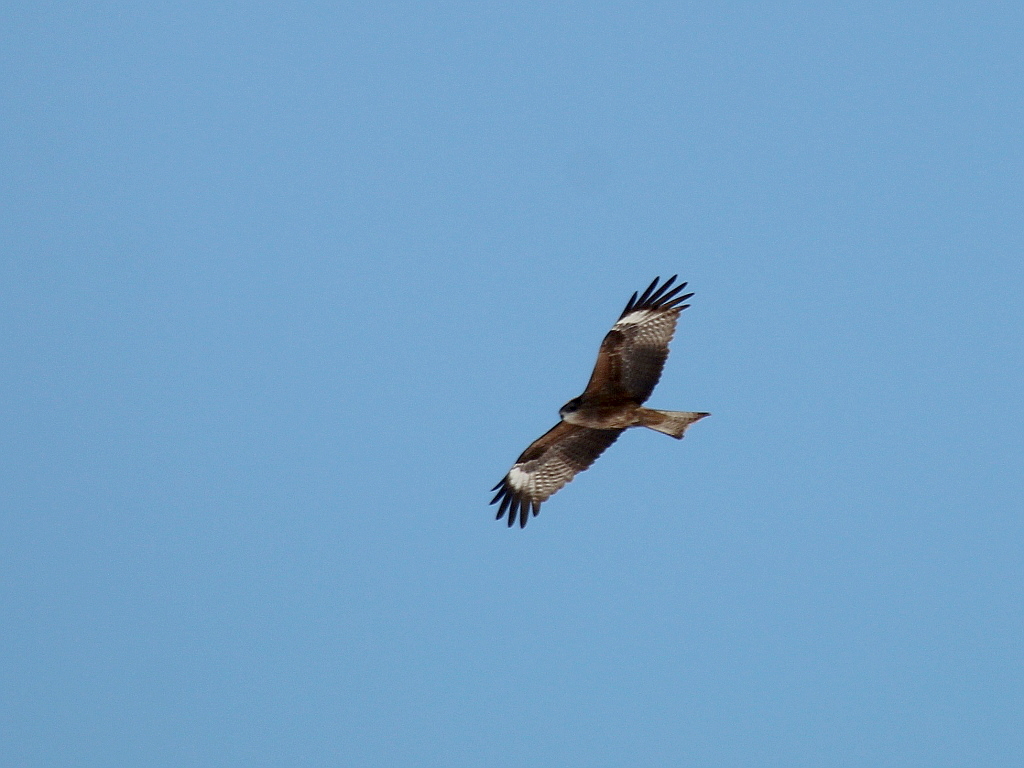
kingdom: Animalia
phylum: Chordata
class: Aves
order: Accipitriformes
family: Accipitridae
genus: Milvus
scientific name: Milvus migrans
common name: Black kite
